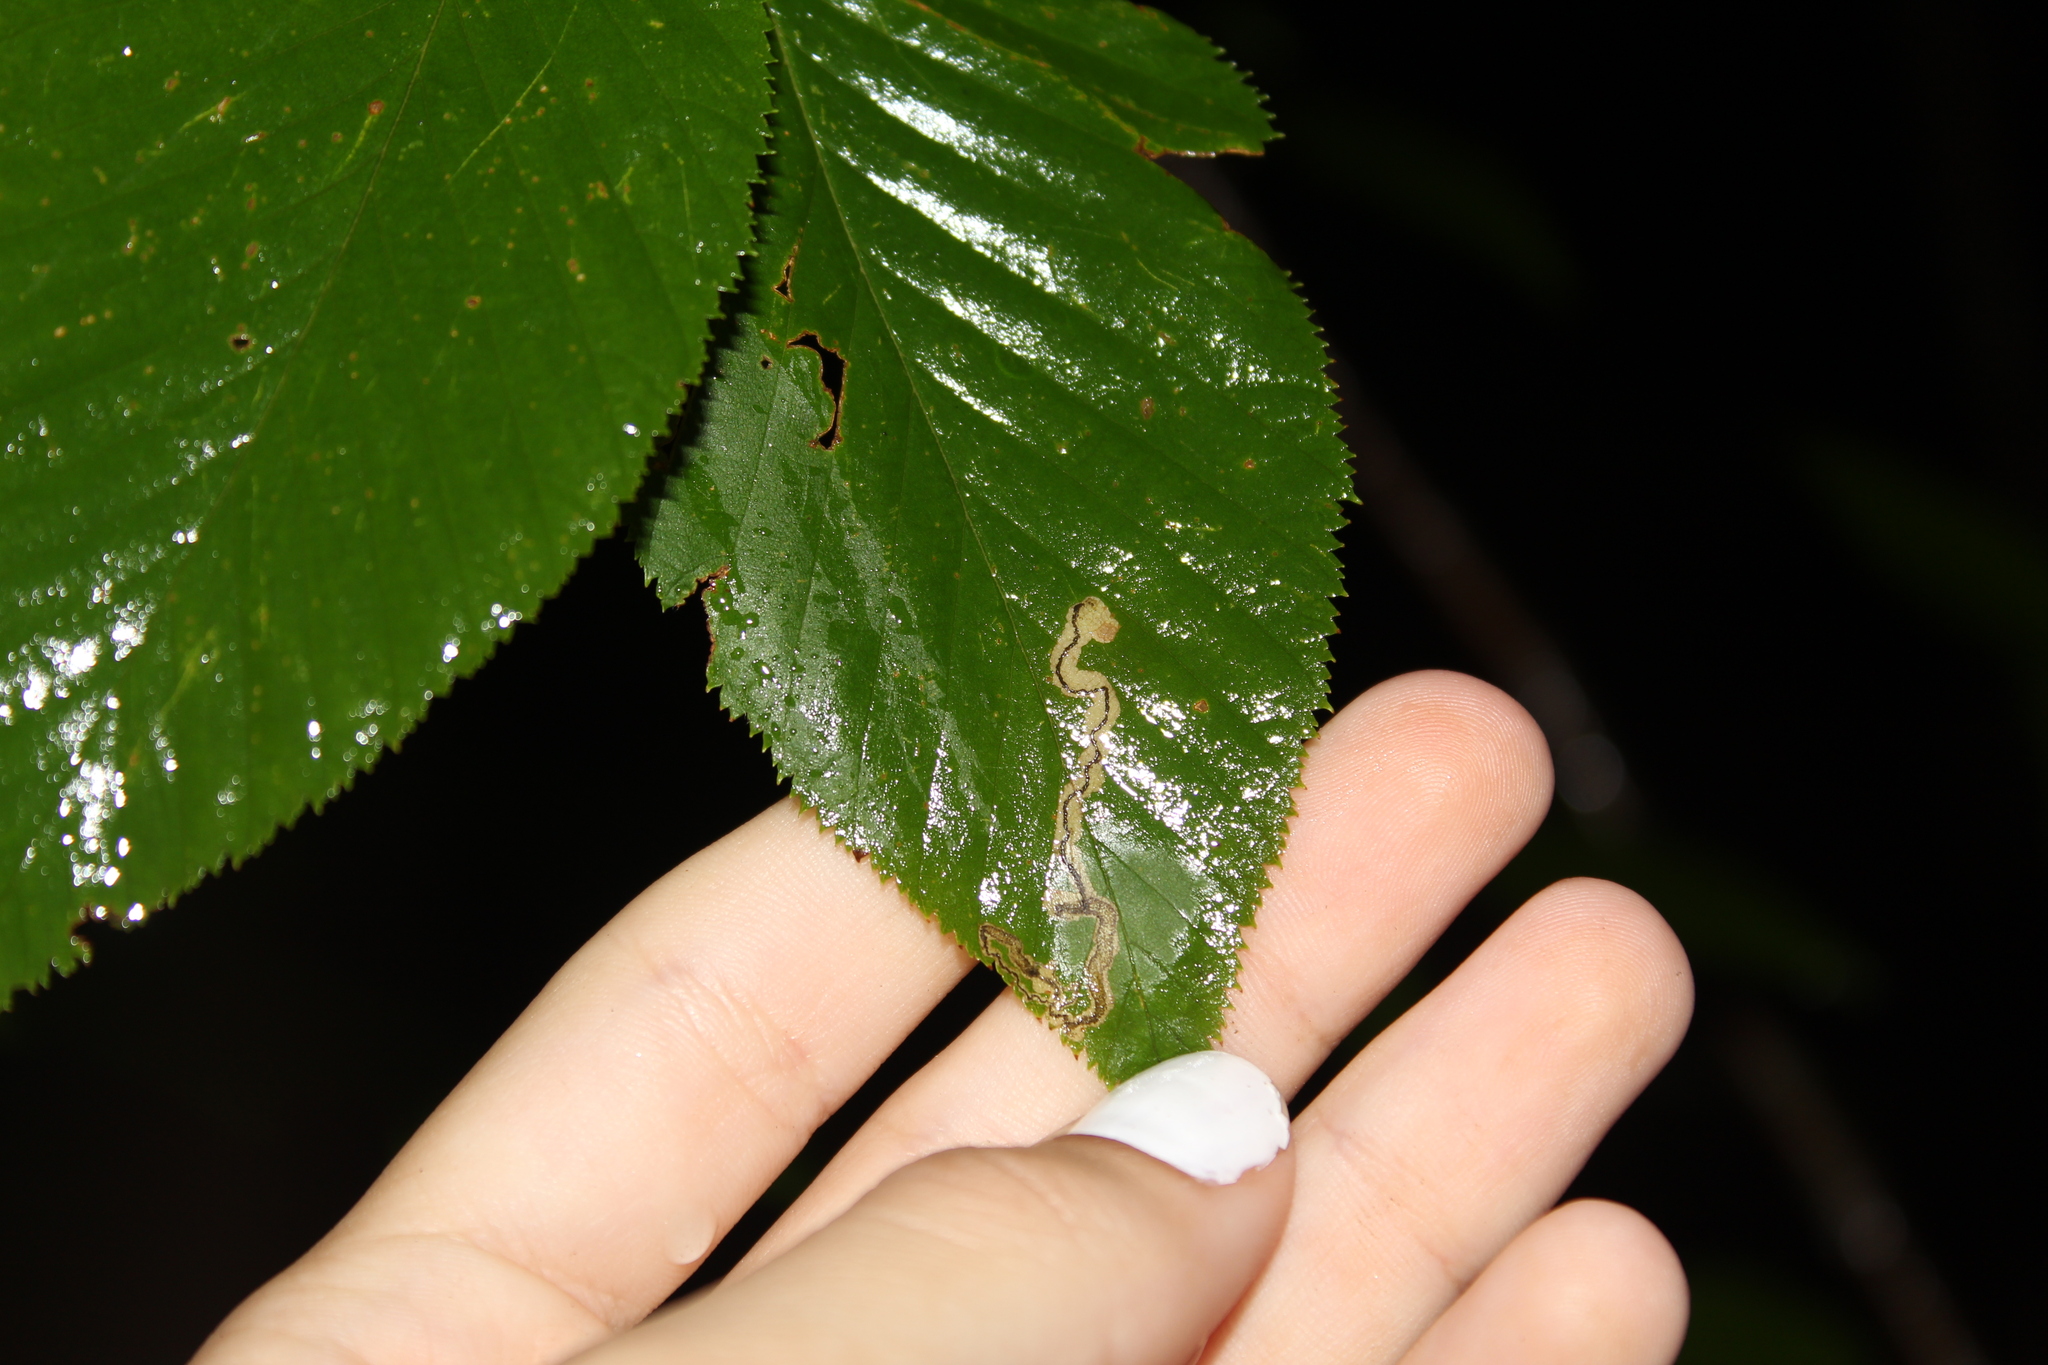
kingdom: Animalia
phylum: Arthropoda
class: Insecta
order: Lepidoptera
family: Nepticulidae
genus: Stigmella
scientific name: Stigmella lemniscella
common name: Red elm pigmy
